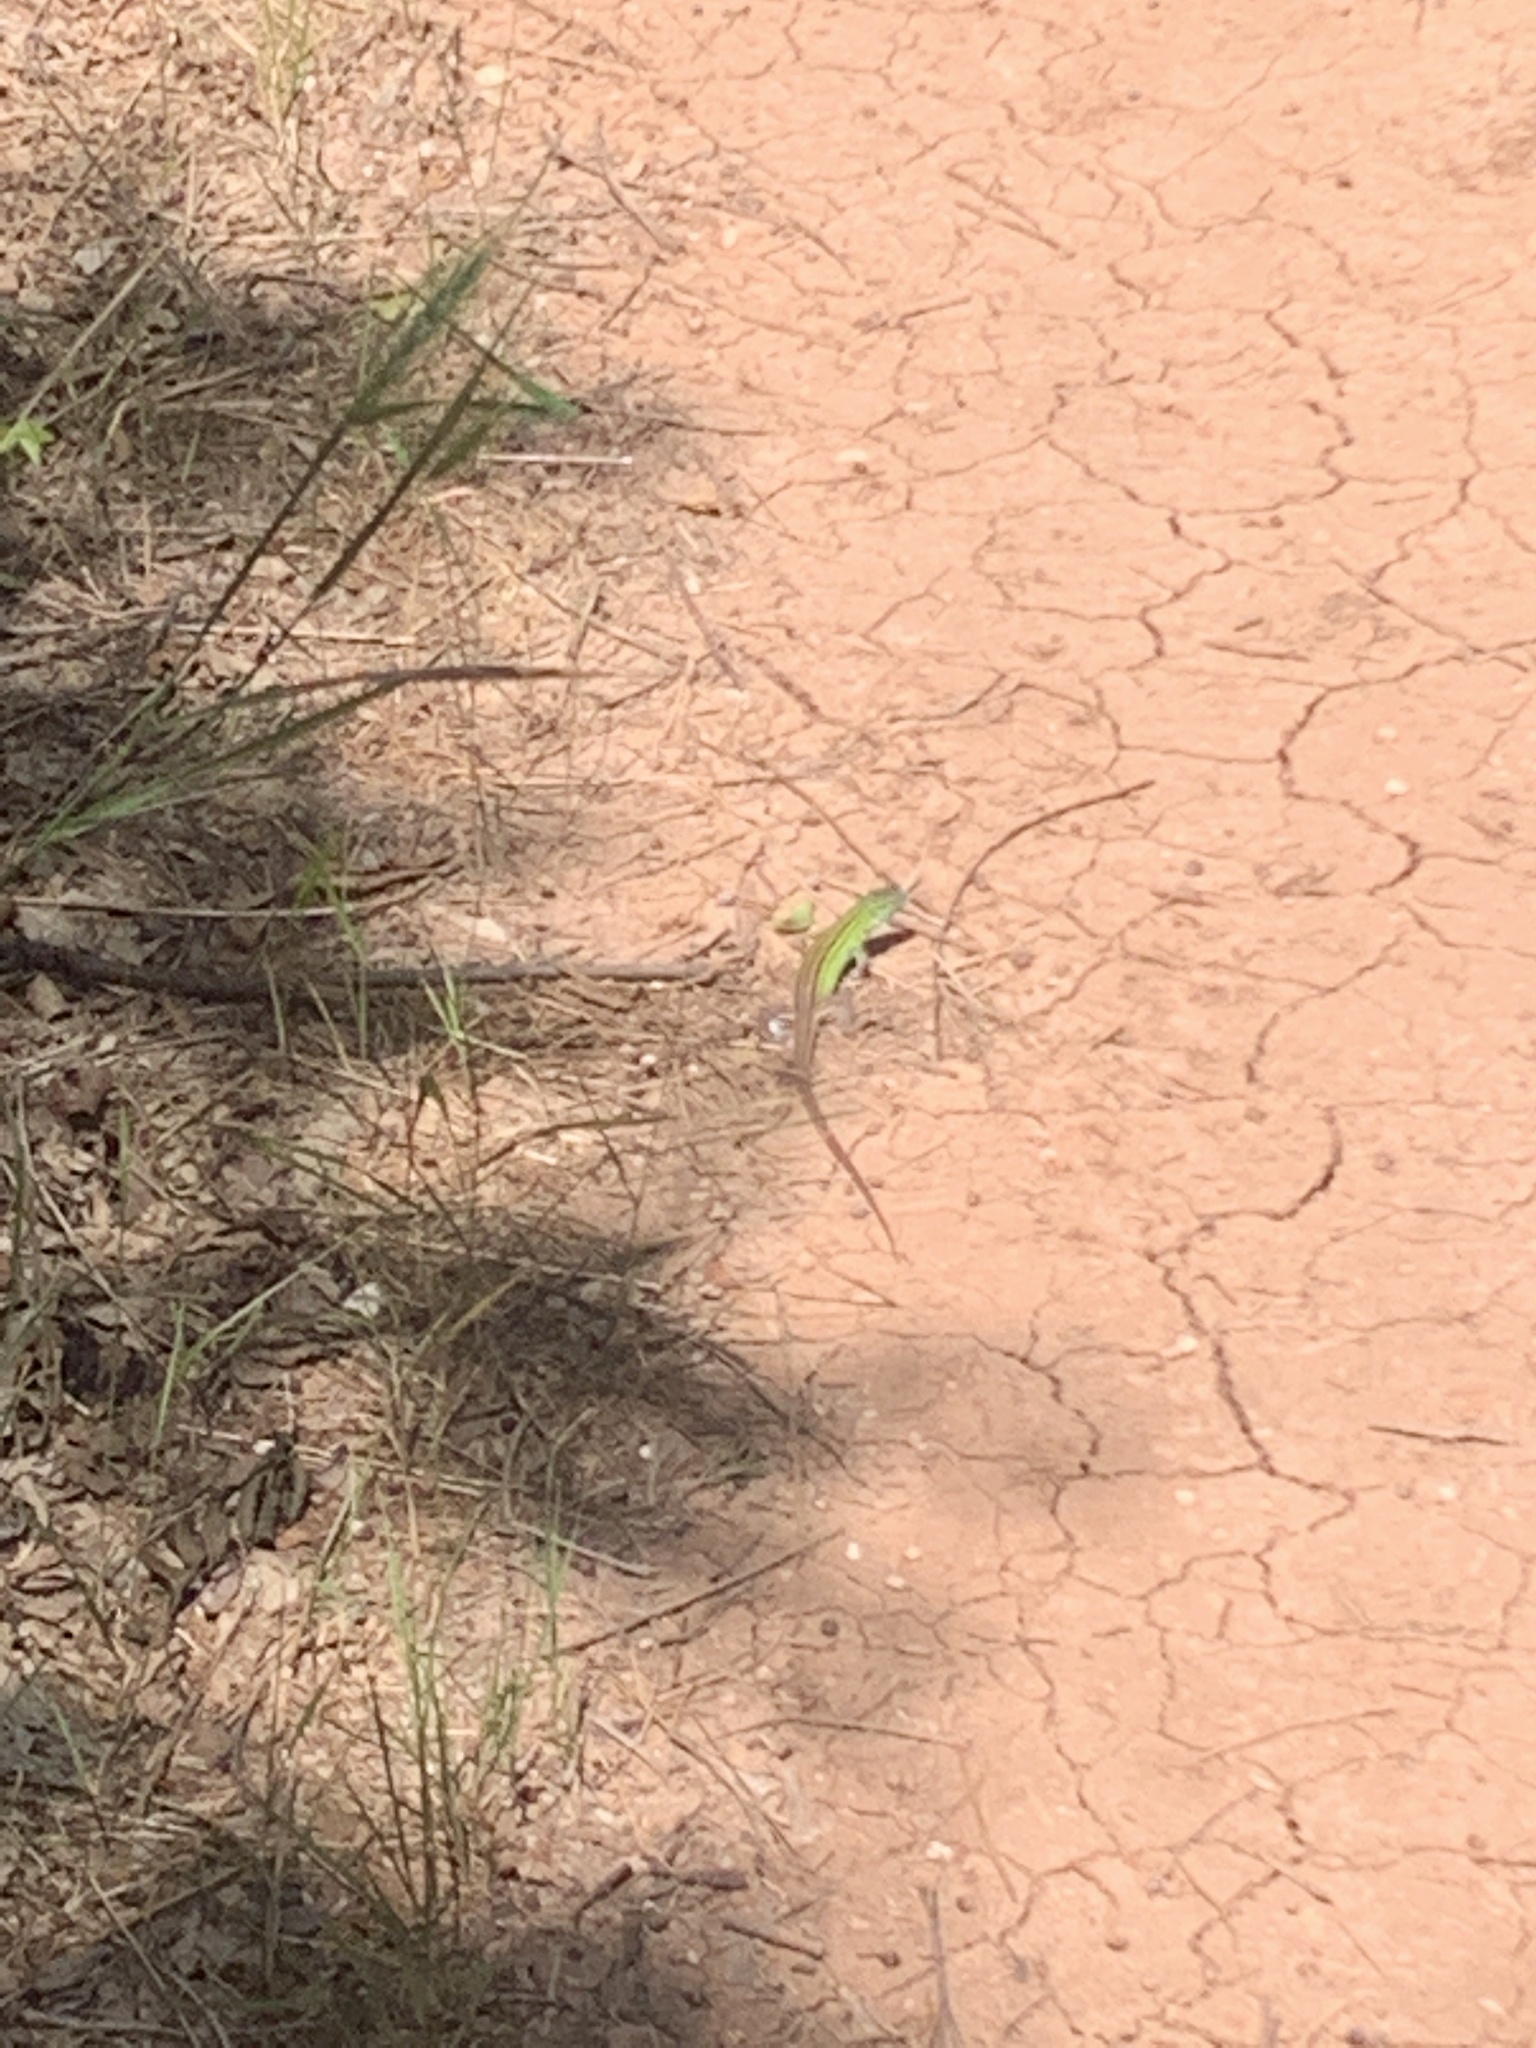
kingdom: Animalia
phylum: Chordata
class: Squamata
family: Teiidae
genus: Aspidoscelis
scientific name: Aspidoscelis sexlineatus
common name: Six-lined racerunner
